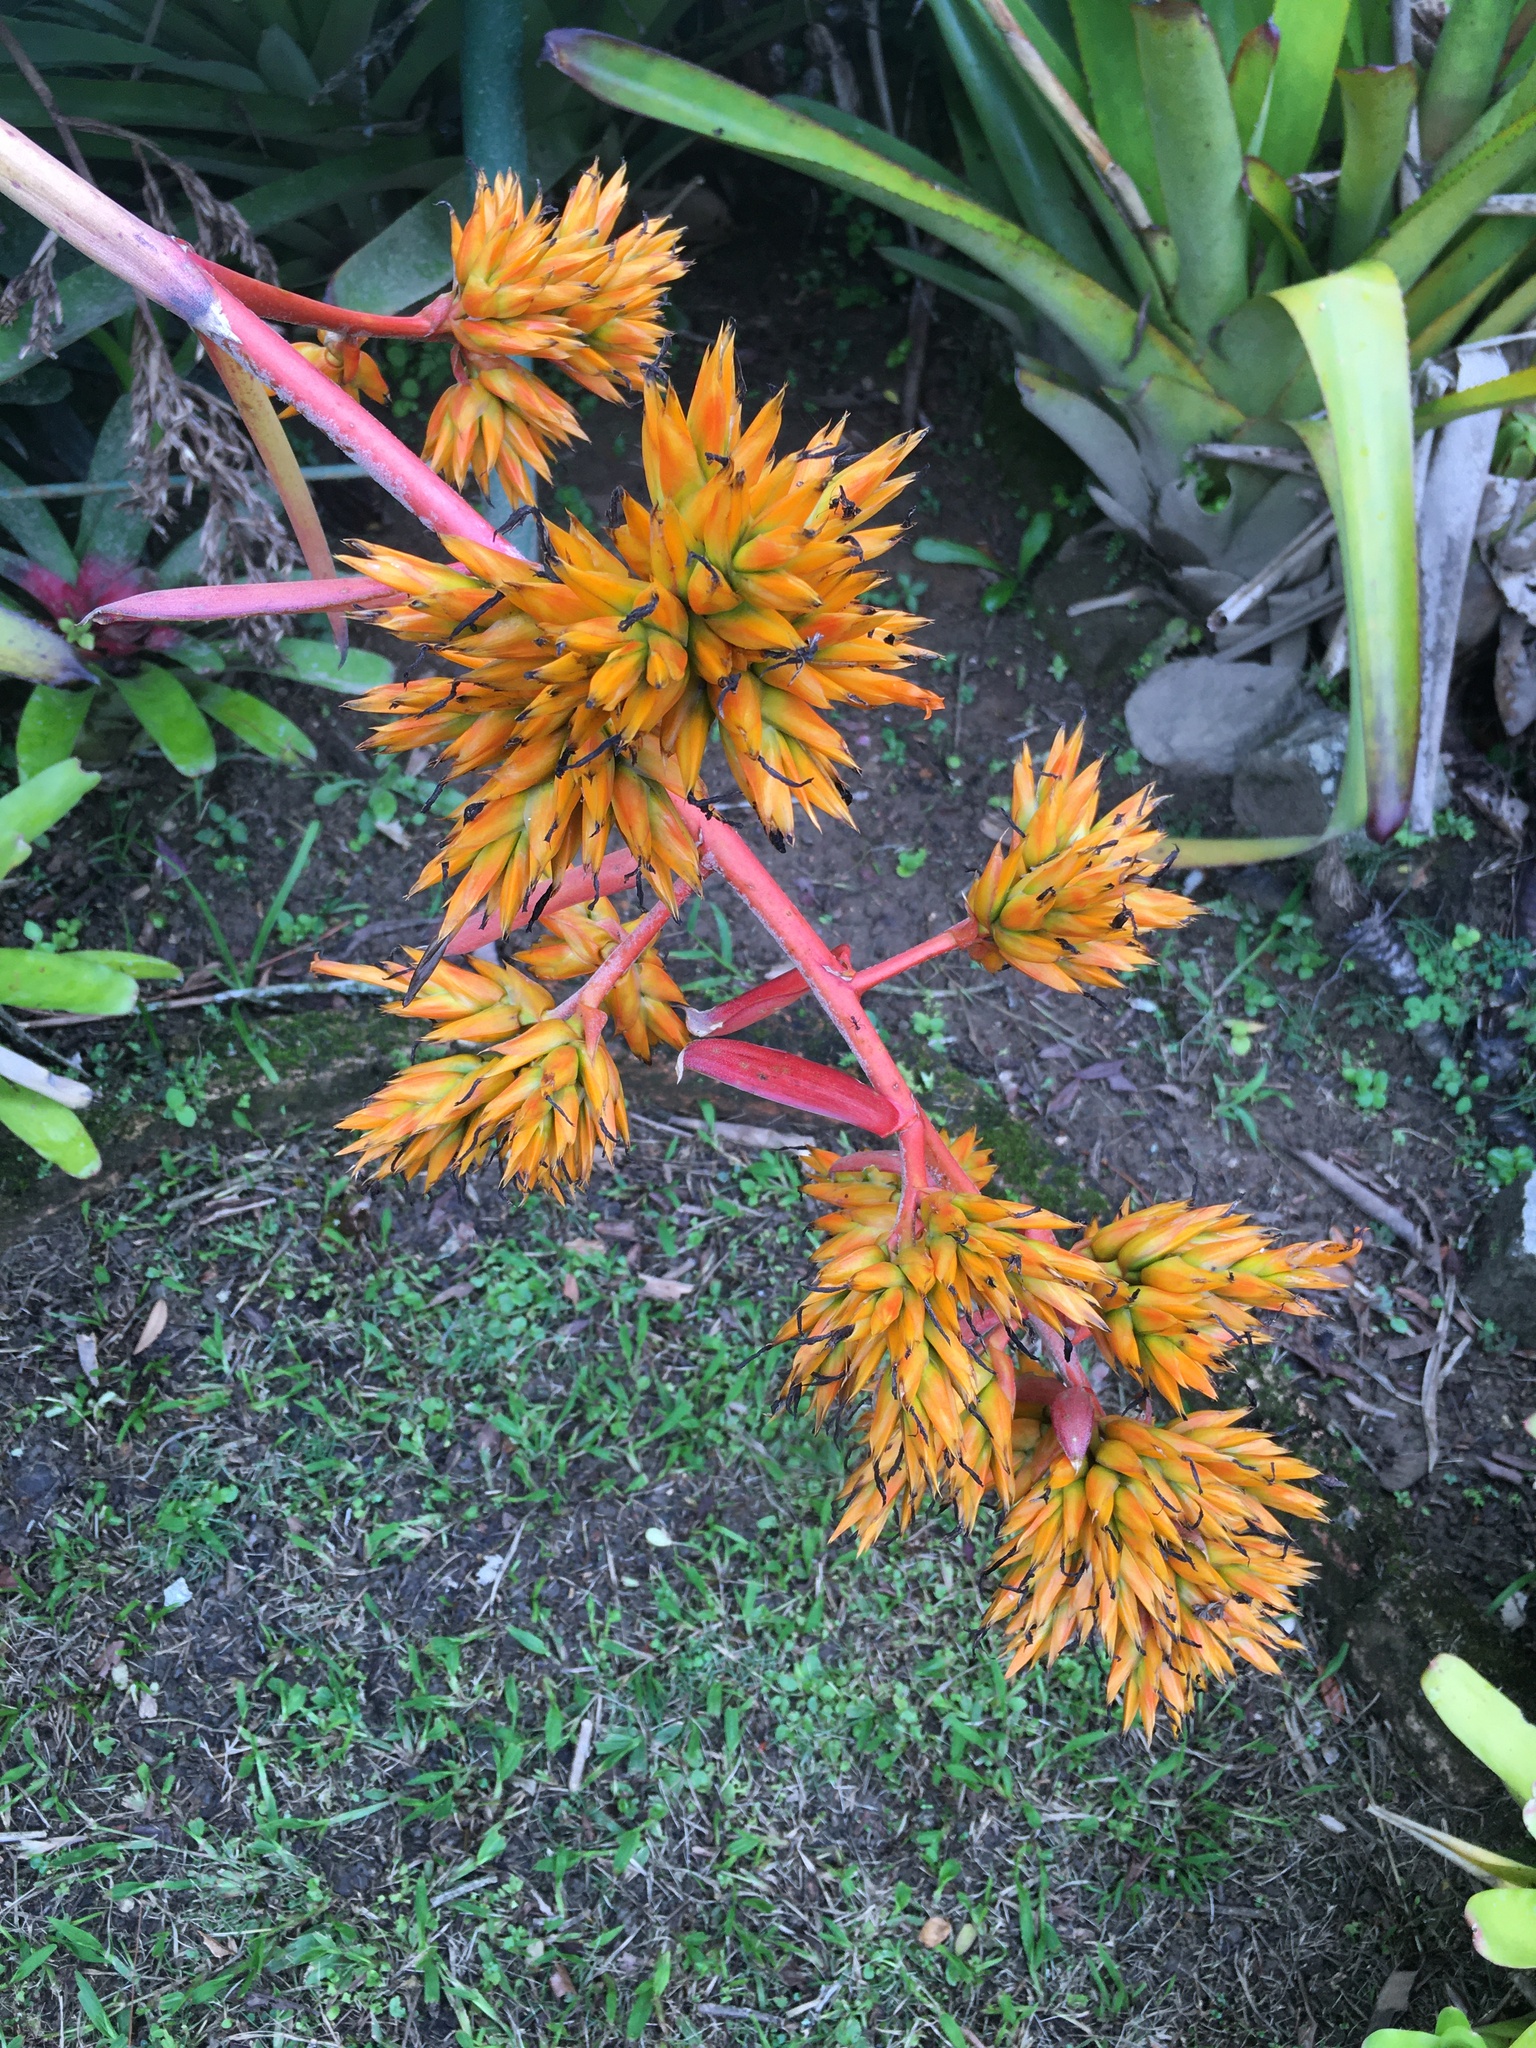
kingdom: Plantae
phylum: Tracheophyta
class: Liliopsida
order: Poales
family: Bromeliaceae
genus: Aechmea
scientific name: Aechmea eurycorymbus
